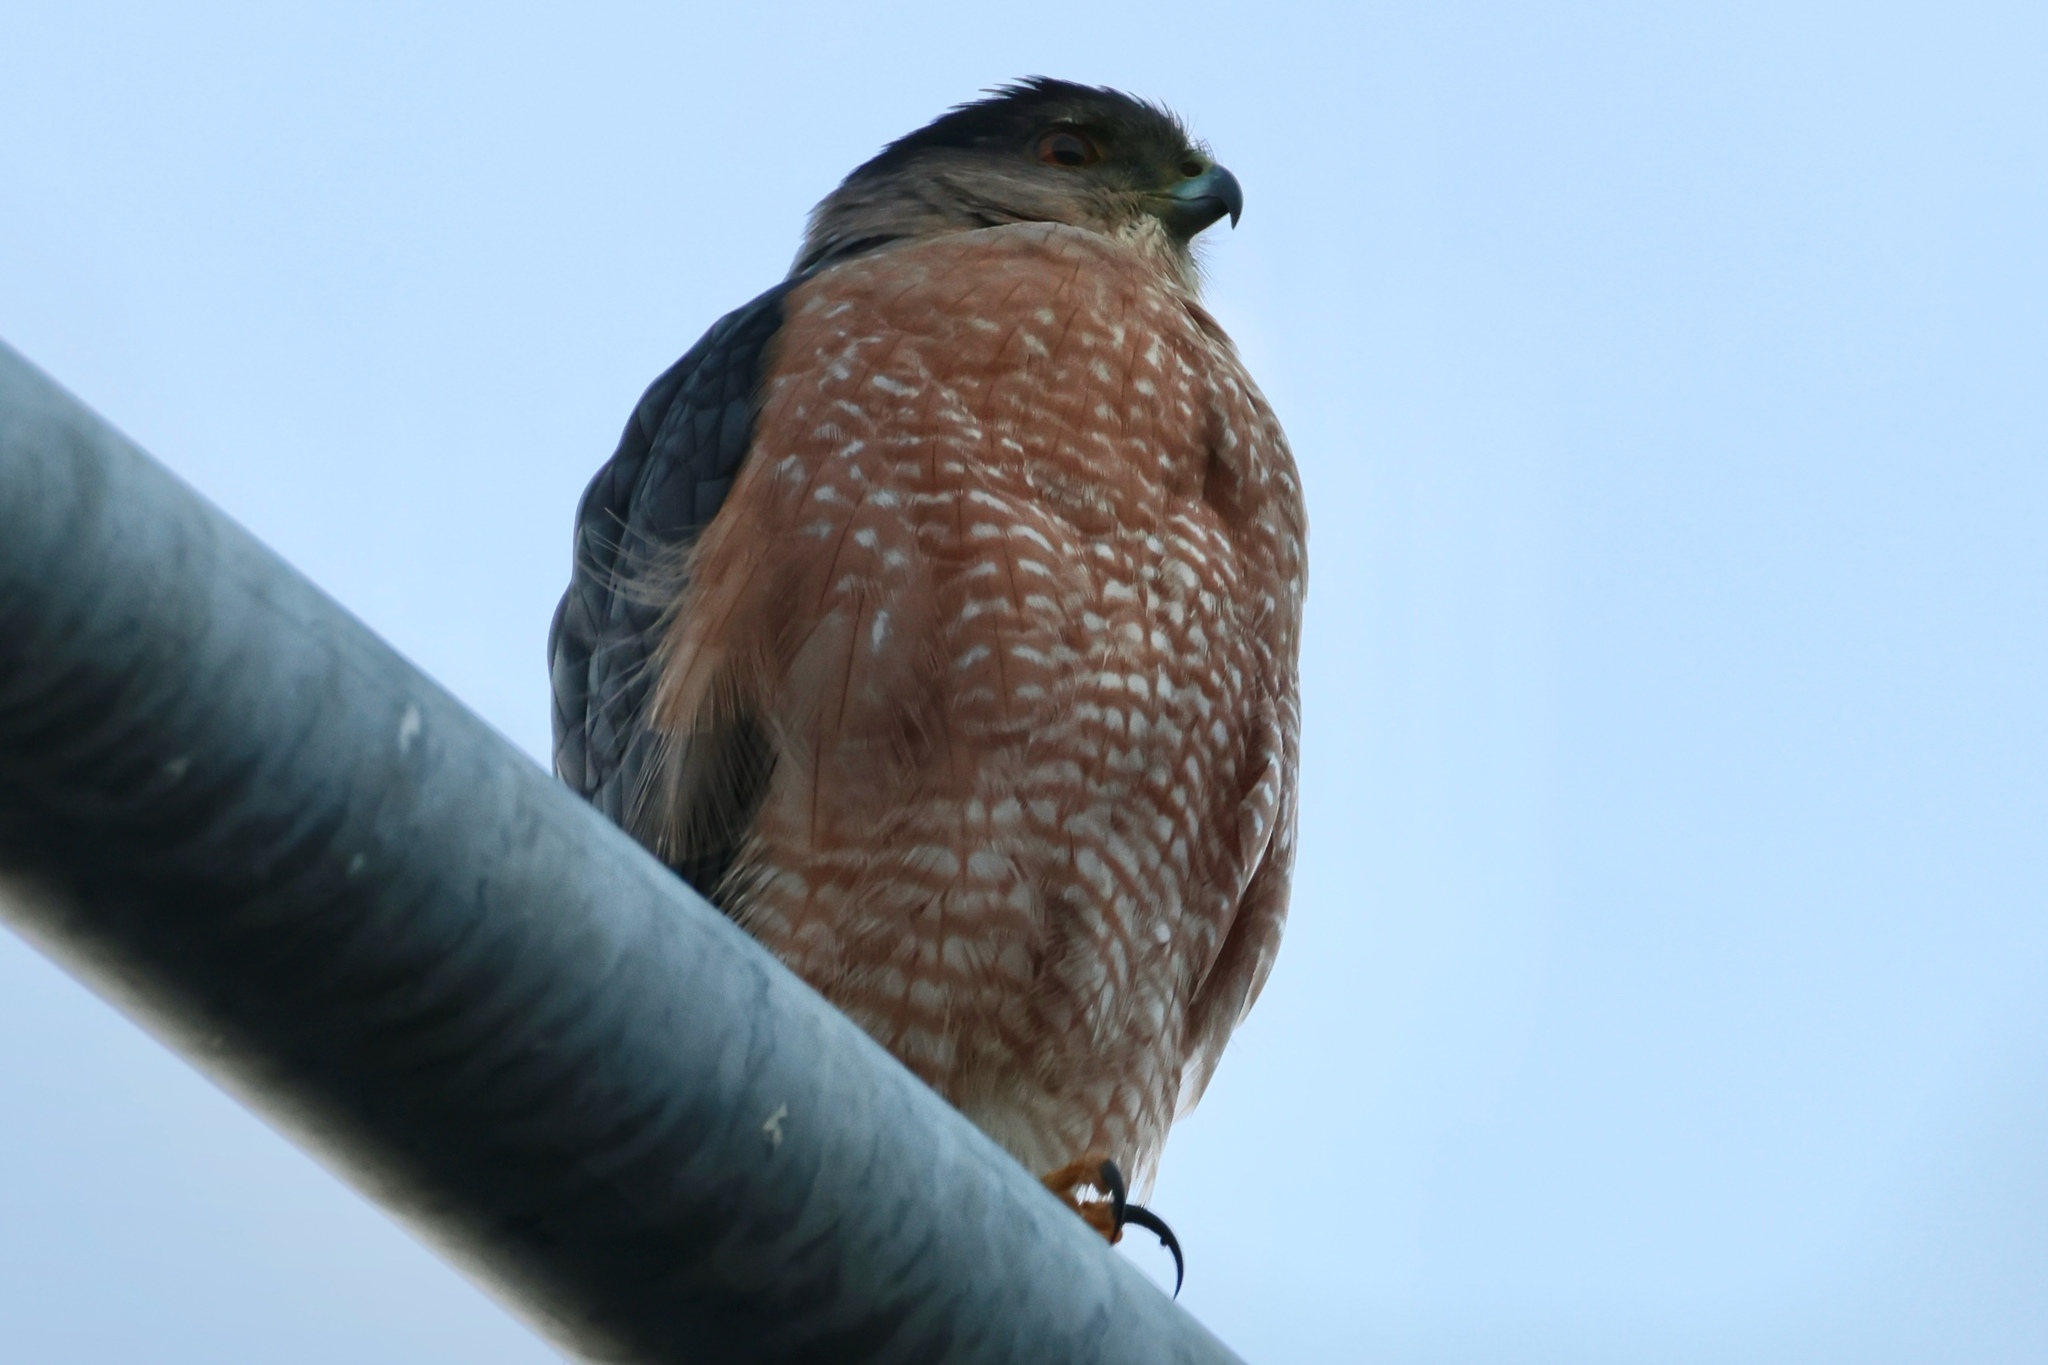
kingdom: Animalia
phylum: Chordata
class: Aves
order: Accipitriformes
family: Accipitridae
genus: Accipiter
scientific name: Accipiter cooperii
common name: Cooper's hawk
